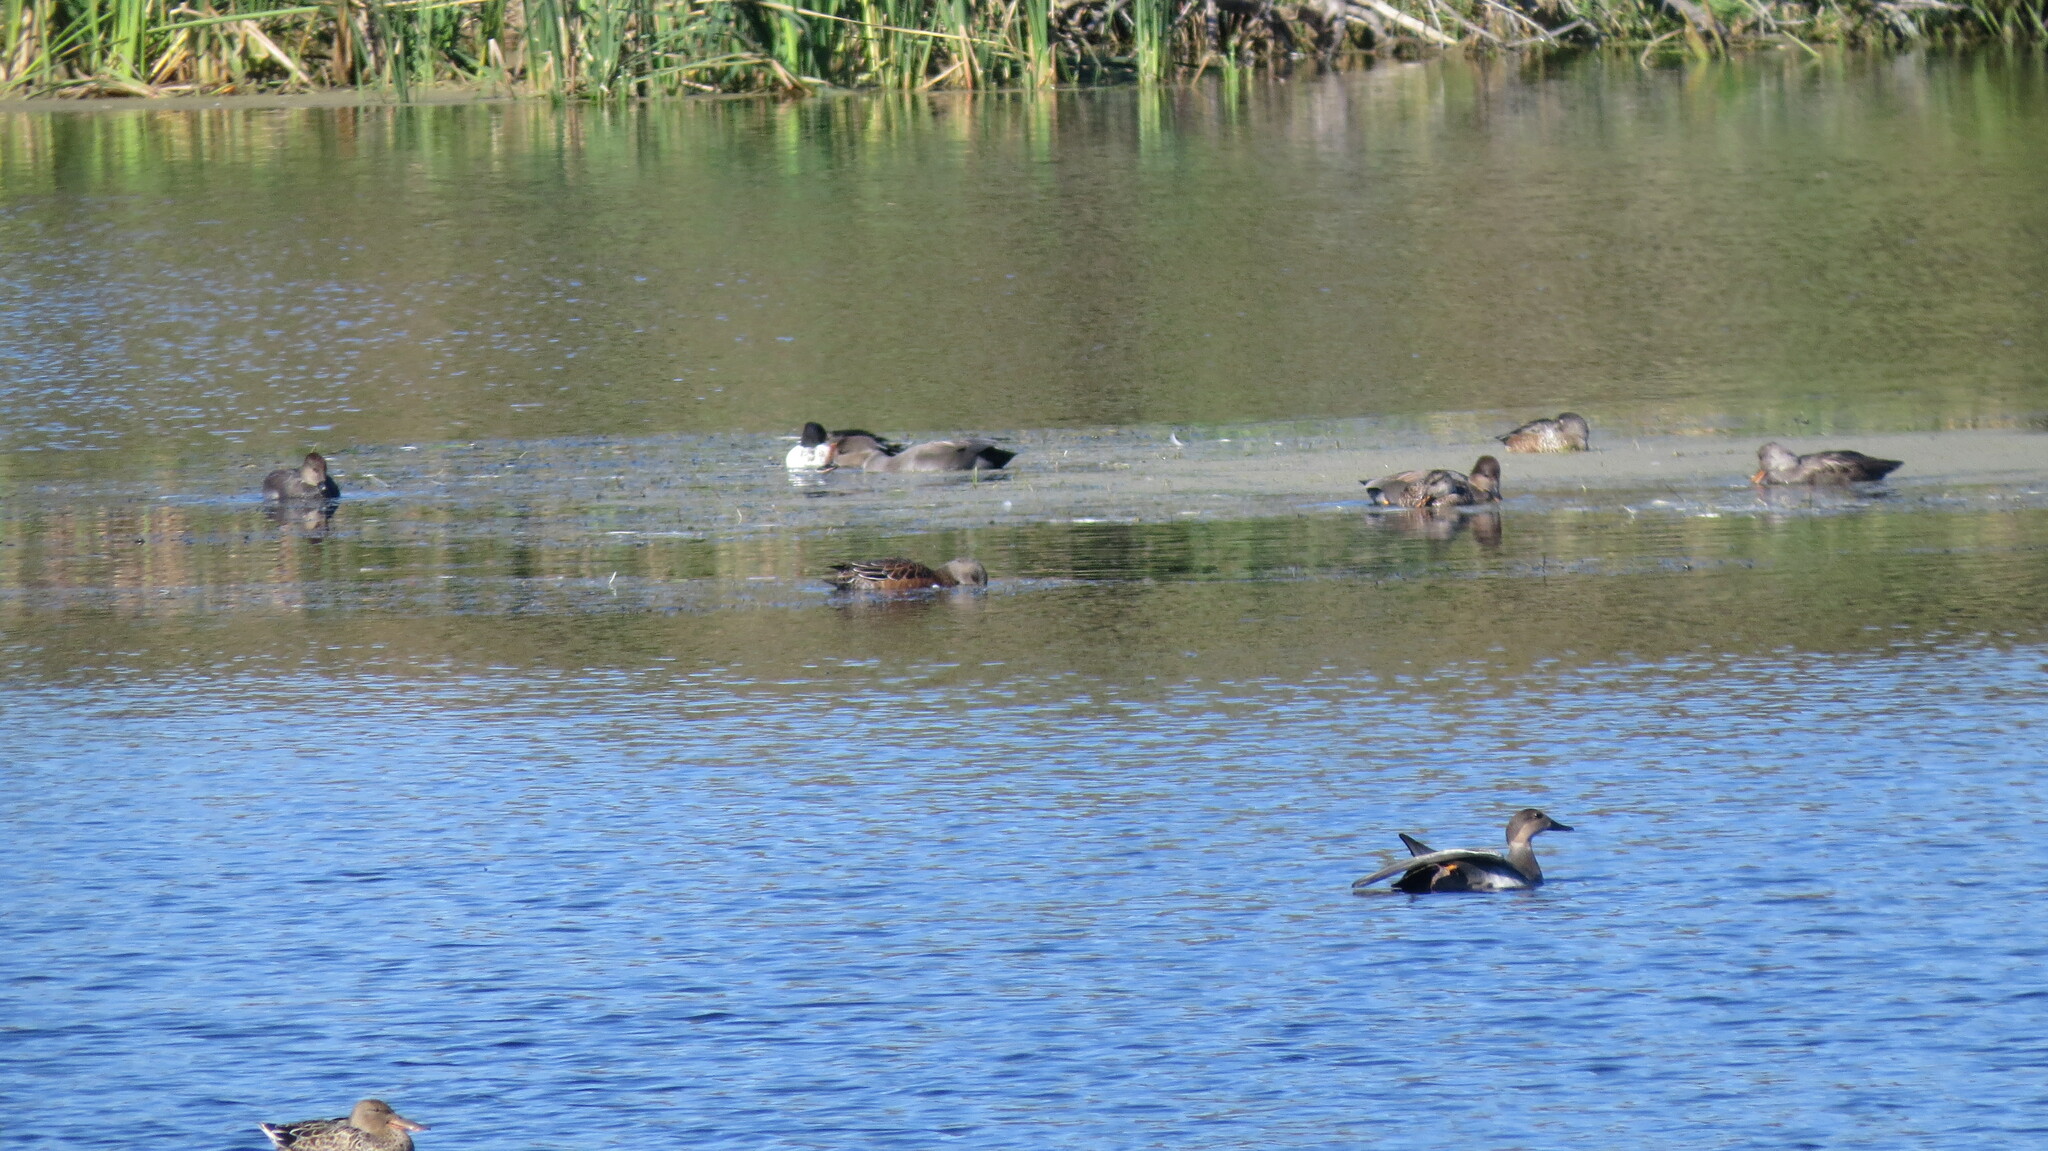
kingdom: Animalia
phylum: Chordata
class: Aves
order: Anseriformes
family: Anatidae
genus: Mareca
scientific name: Mareca americana
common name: American wigeon
